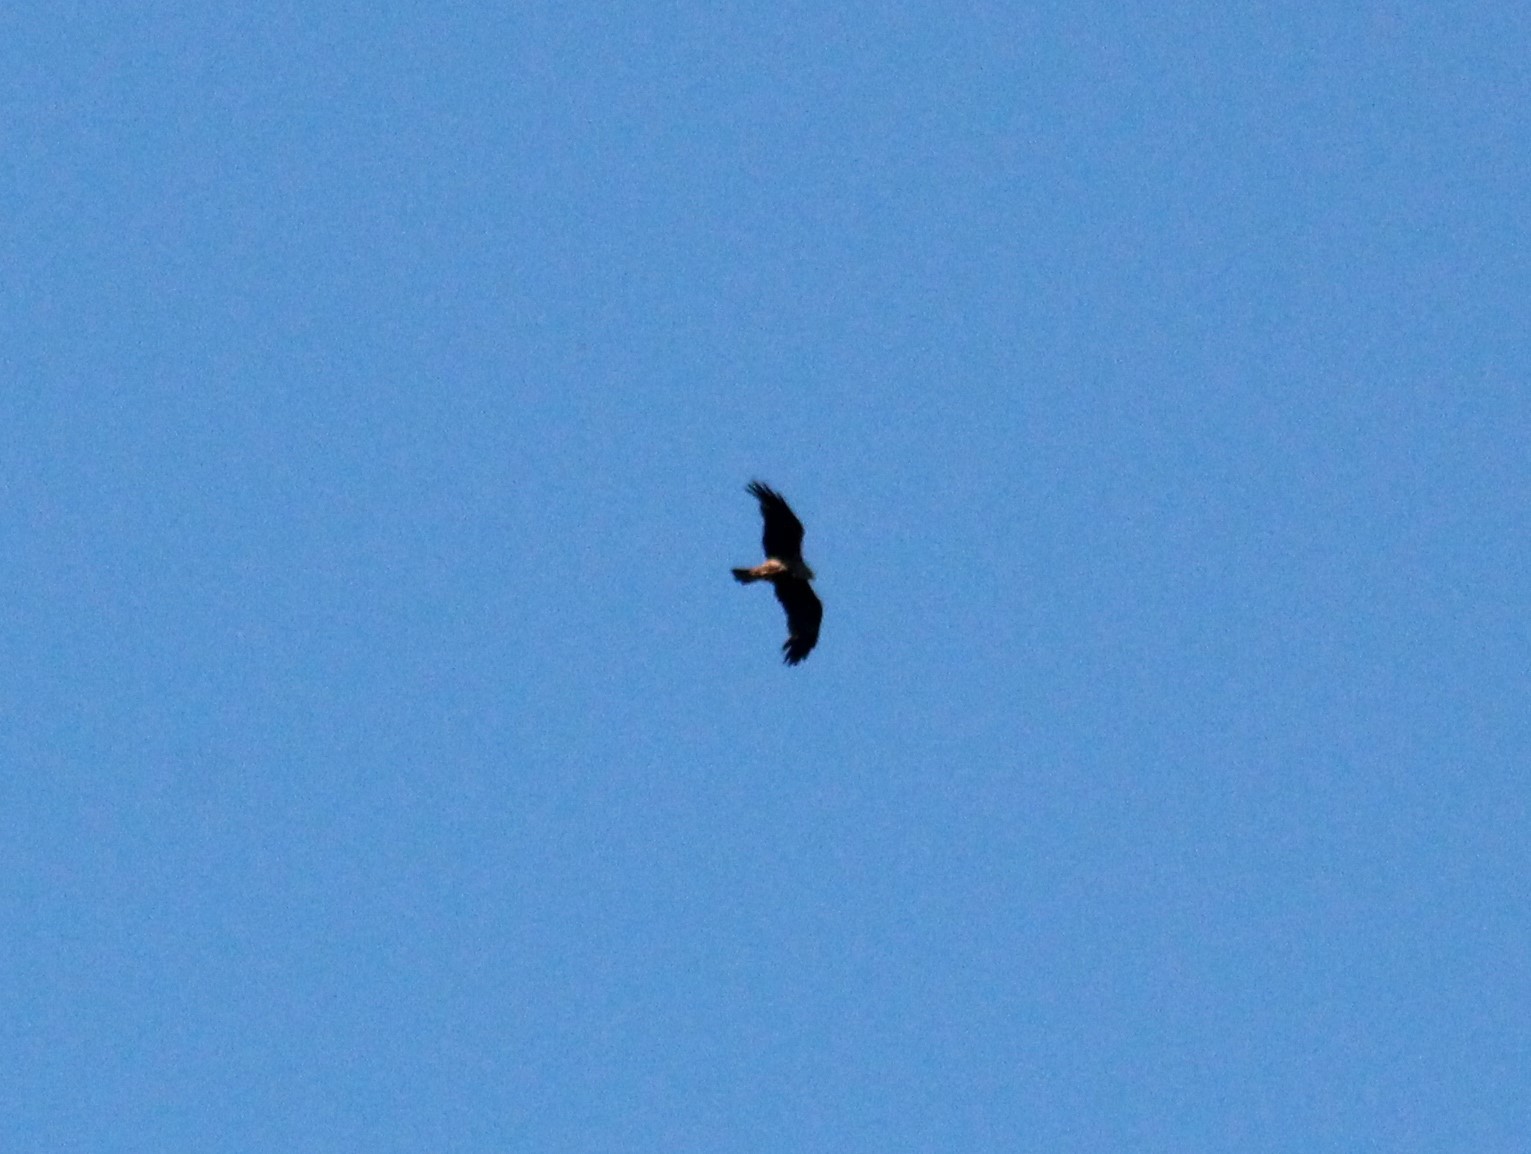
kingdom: Animalia
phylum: Chordata
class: Aves
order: Accipitriformes
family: Accipitridae
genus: Milvus
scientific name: Milvus migrans
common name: Black kite
